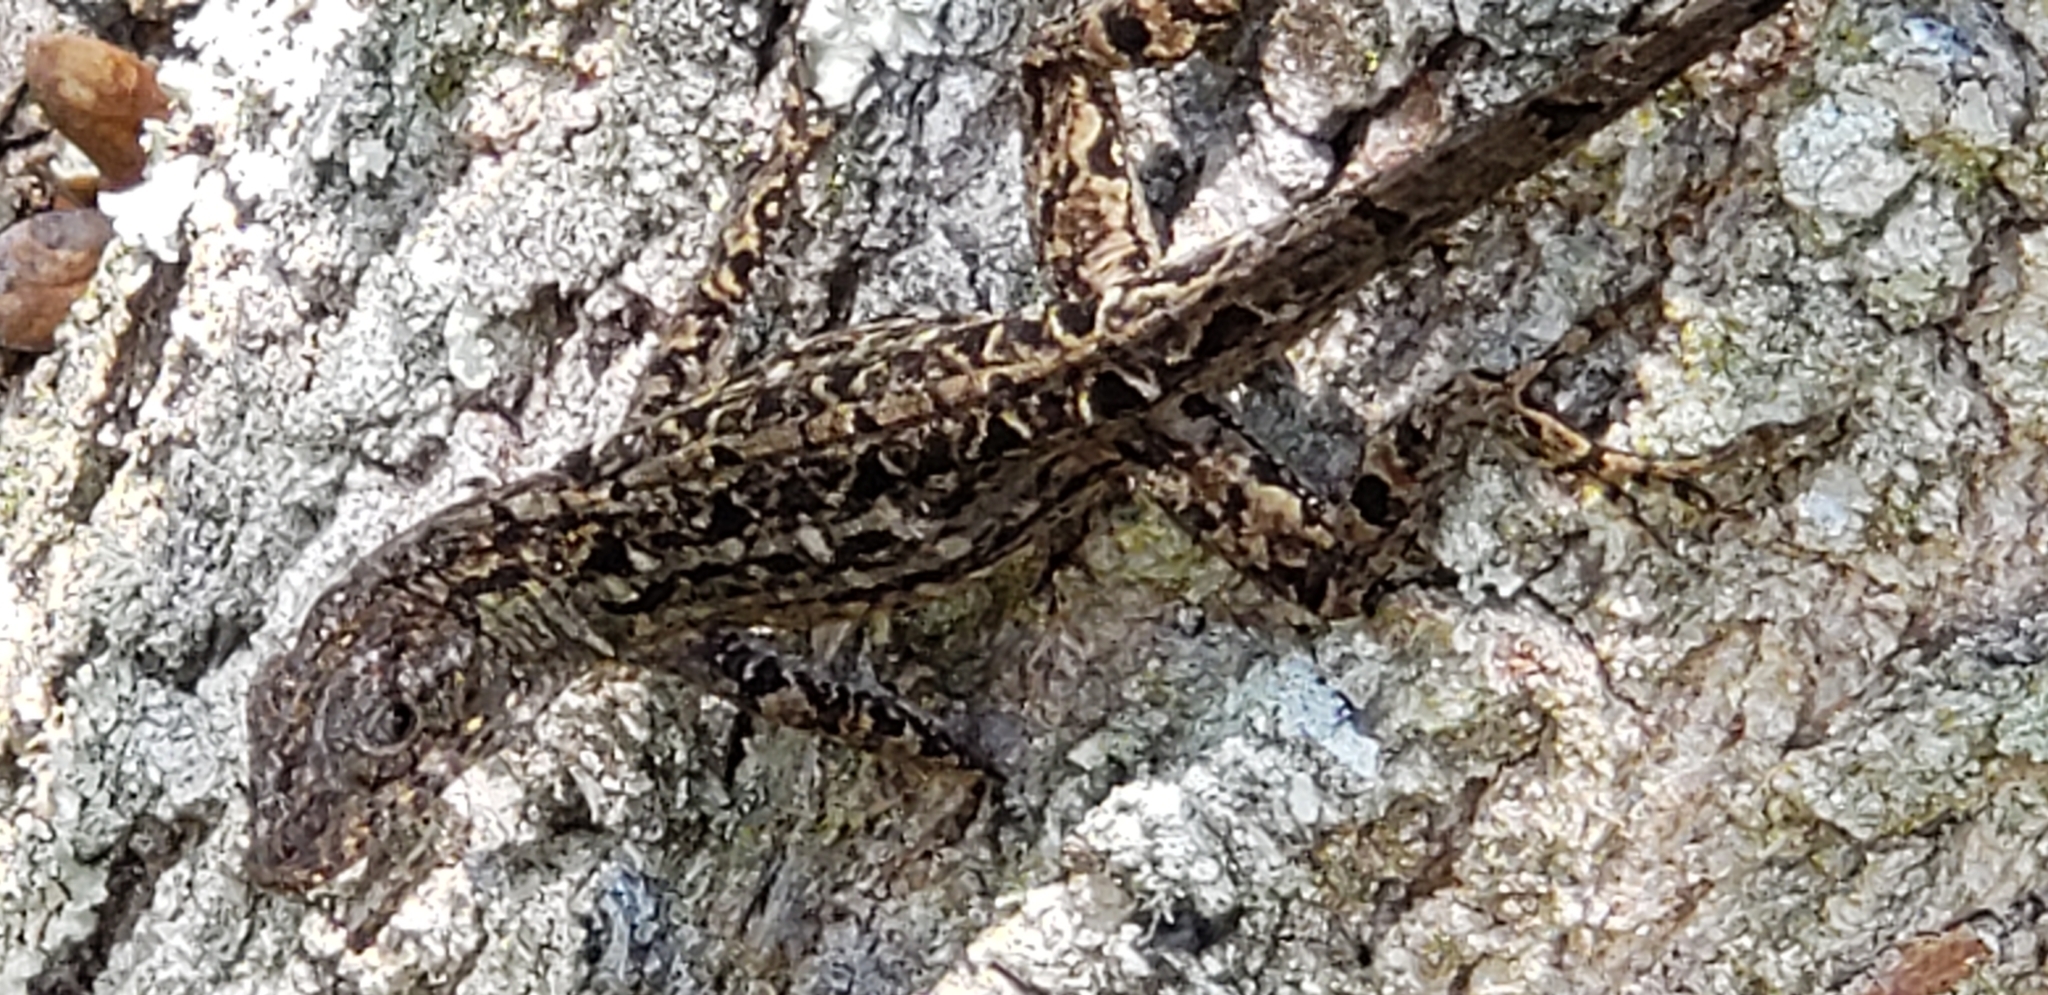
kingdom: Animalia
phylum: Chordata
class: Squamata
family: Dactyloidae
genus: Anolis
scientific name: Anolis sagrei
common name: Brown anole
